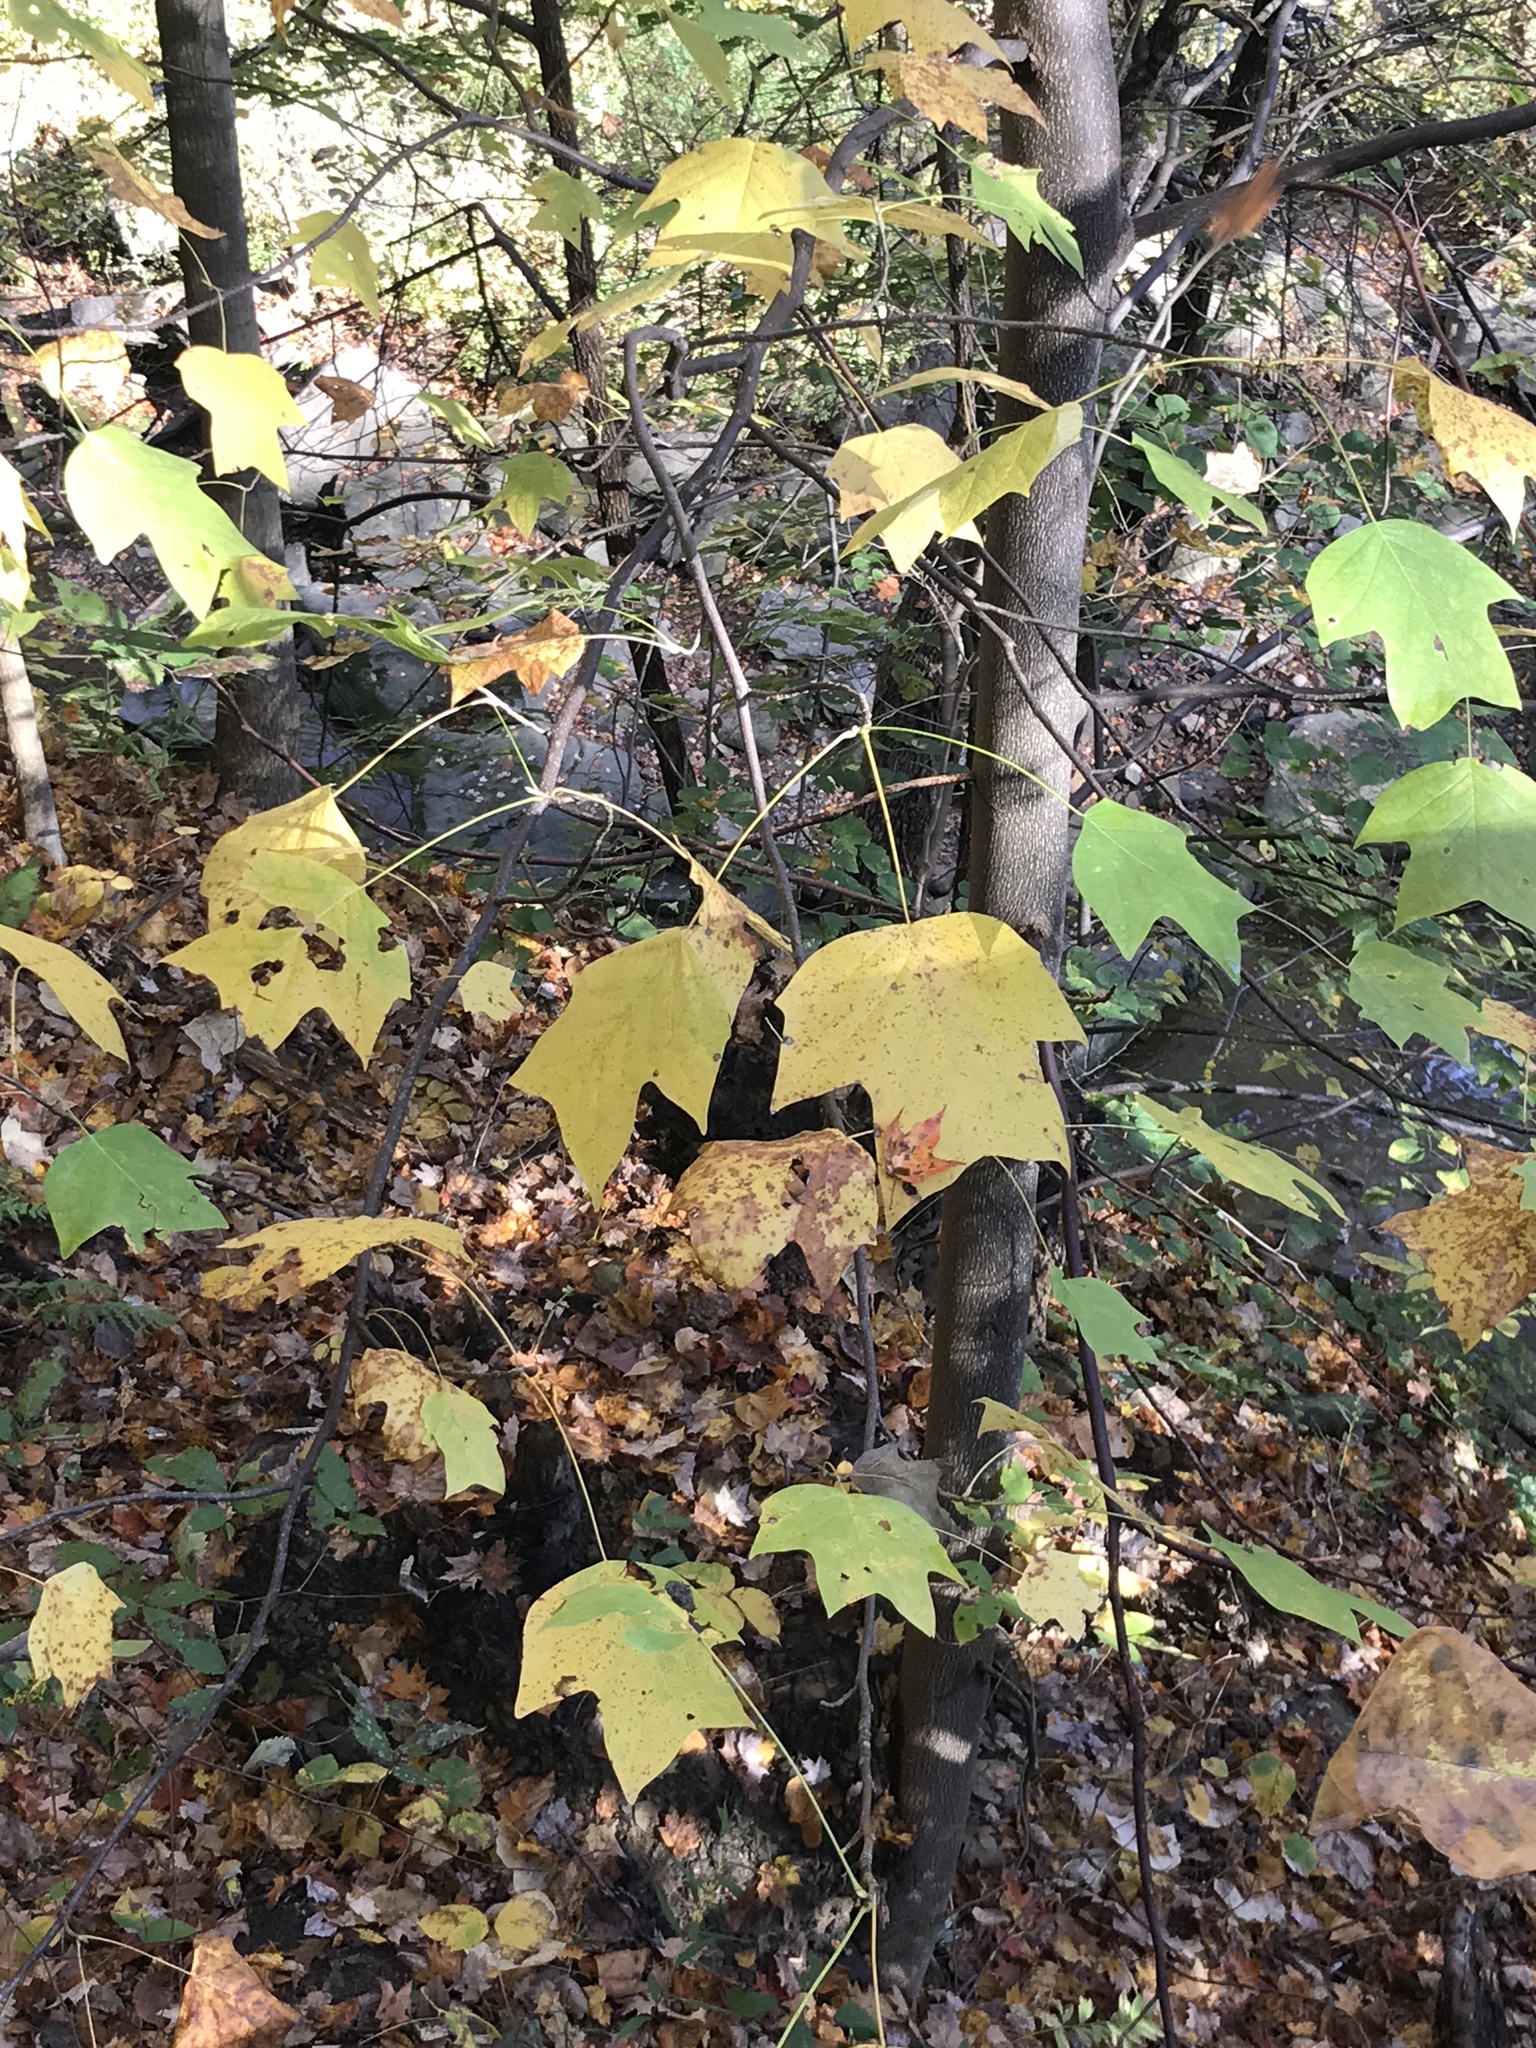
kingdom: Plantae
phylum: Tracheophyta
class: Magnoliopsida
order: Magnoliales
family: Magnoliaceae
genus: Liriodendron
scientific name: Liriodendron tulipifera
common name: Tulip tree
